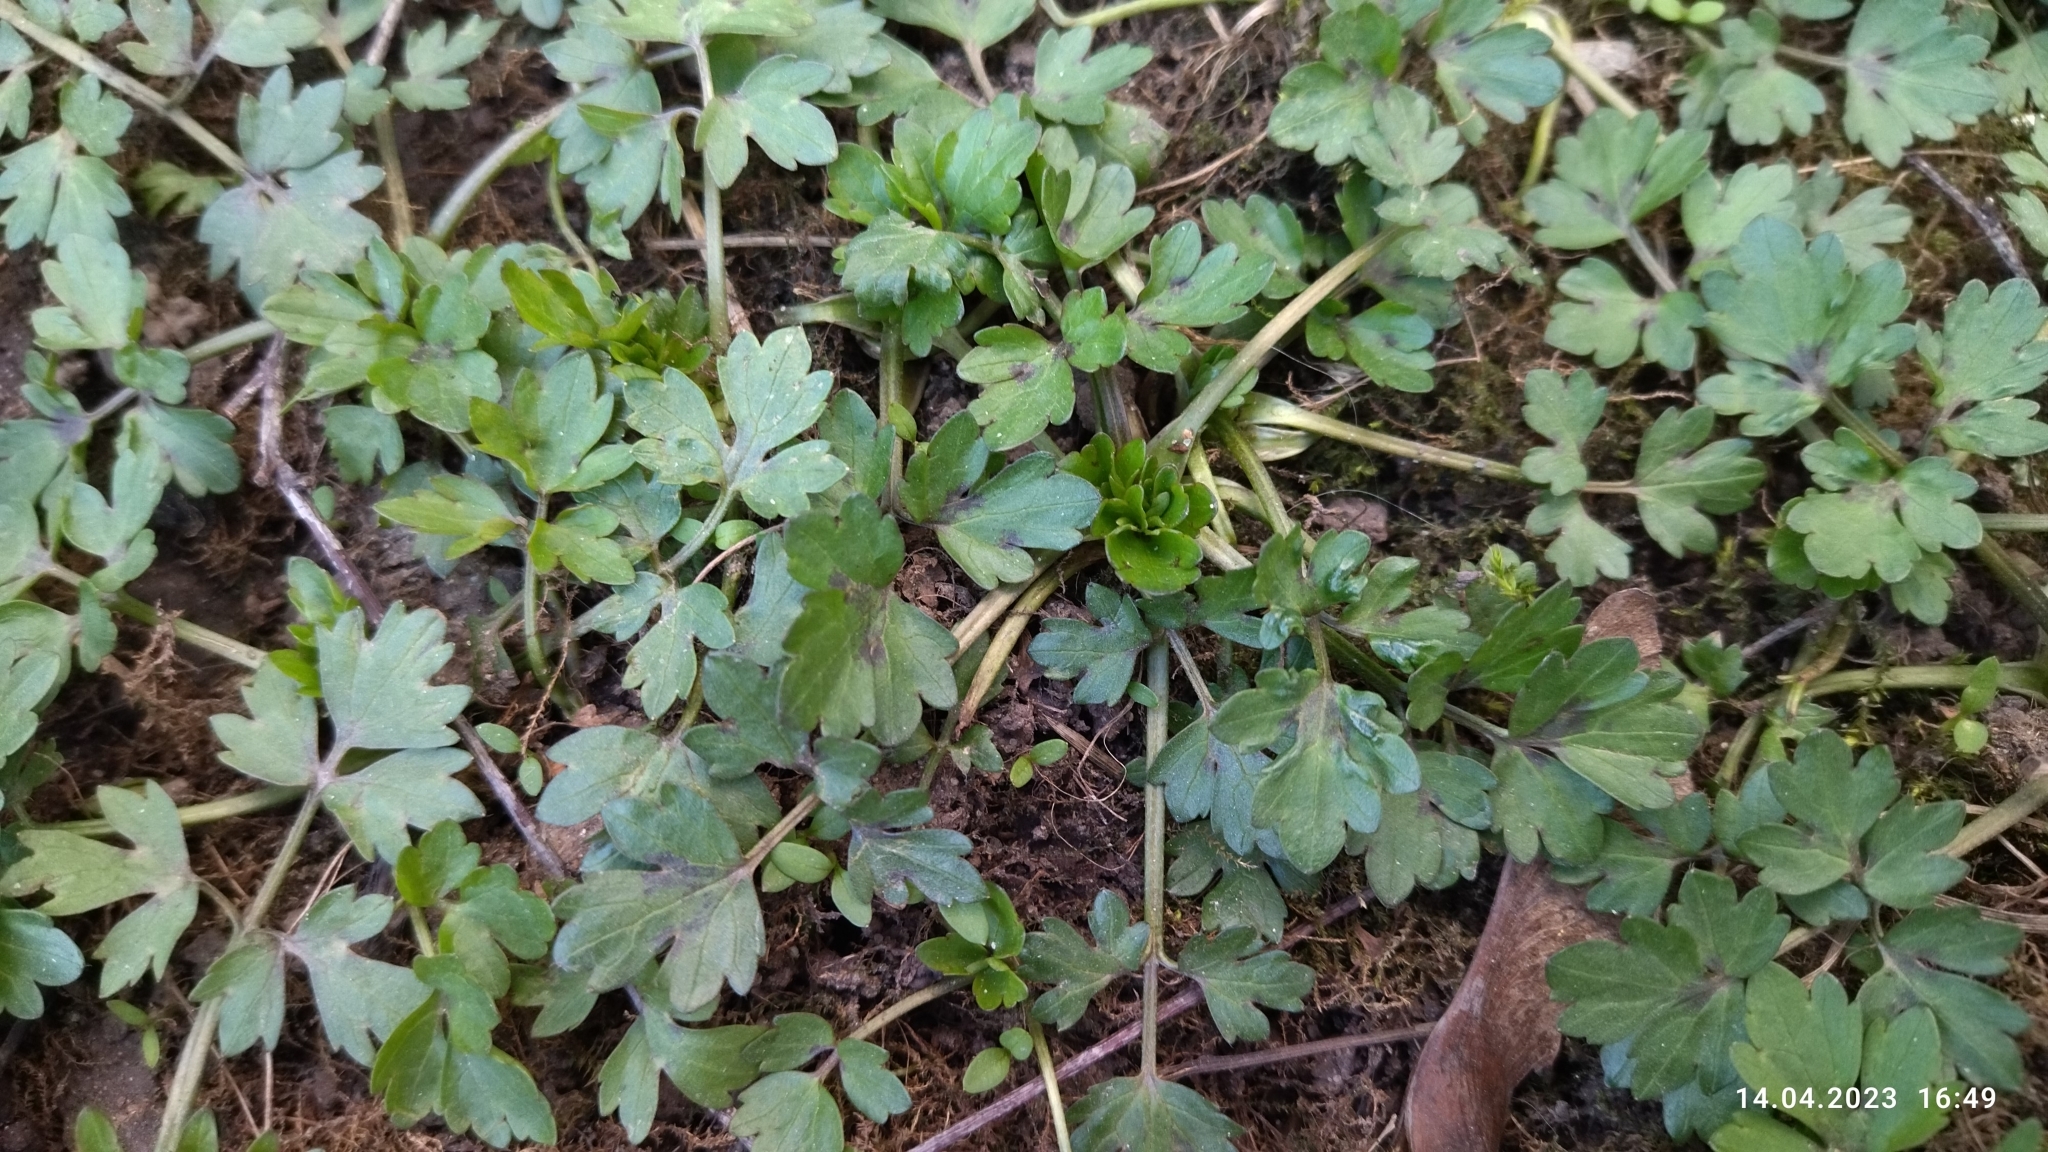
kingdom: Plantae
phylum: Tracheophyta
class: Magnoliopsida
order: Ranunculales
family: Ranunculaceae
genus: Ranunculus
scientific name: Ranunculus repens
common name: Creeping buttercup
